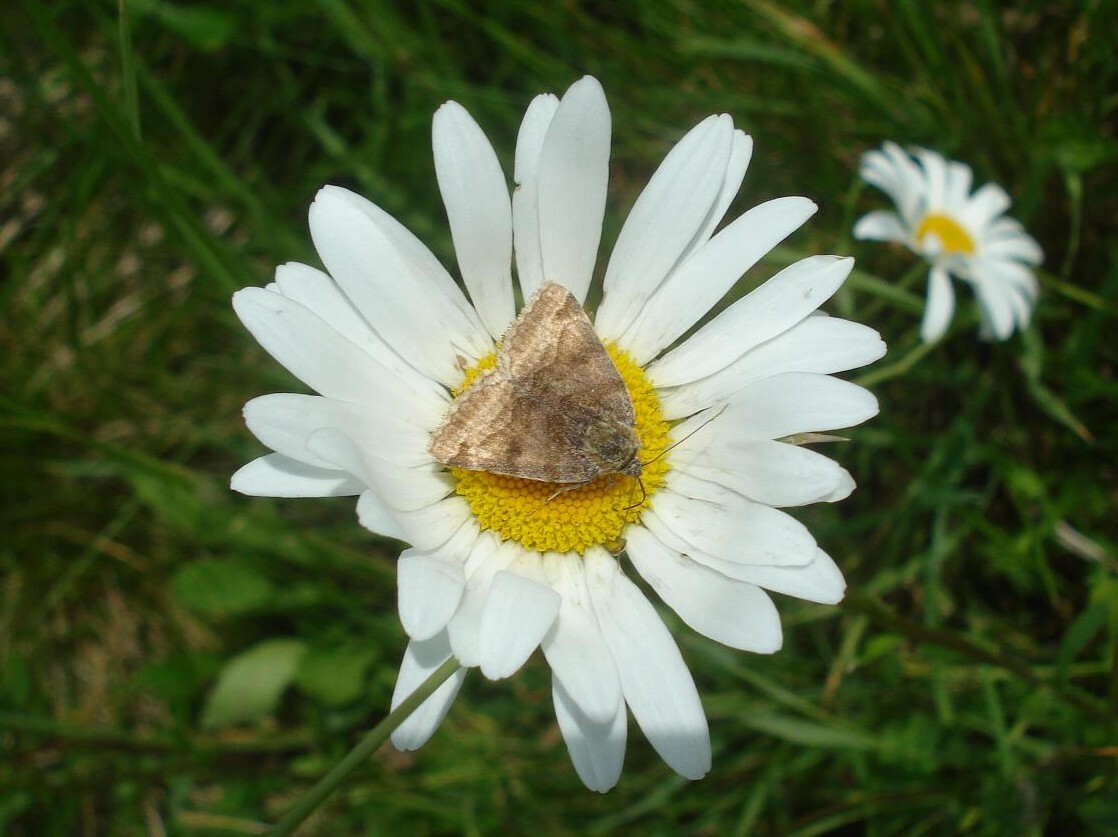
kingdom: Animalia
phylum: Arthropoda
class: Insecta
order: Lepidoptera
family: Erebidae
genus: Euclidia
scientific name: Euclidia glyphica
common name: Burnet companion
